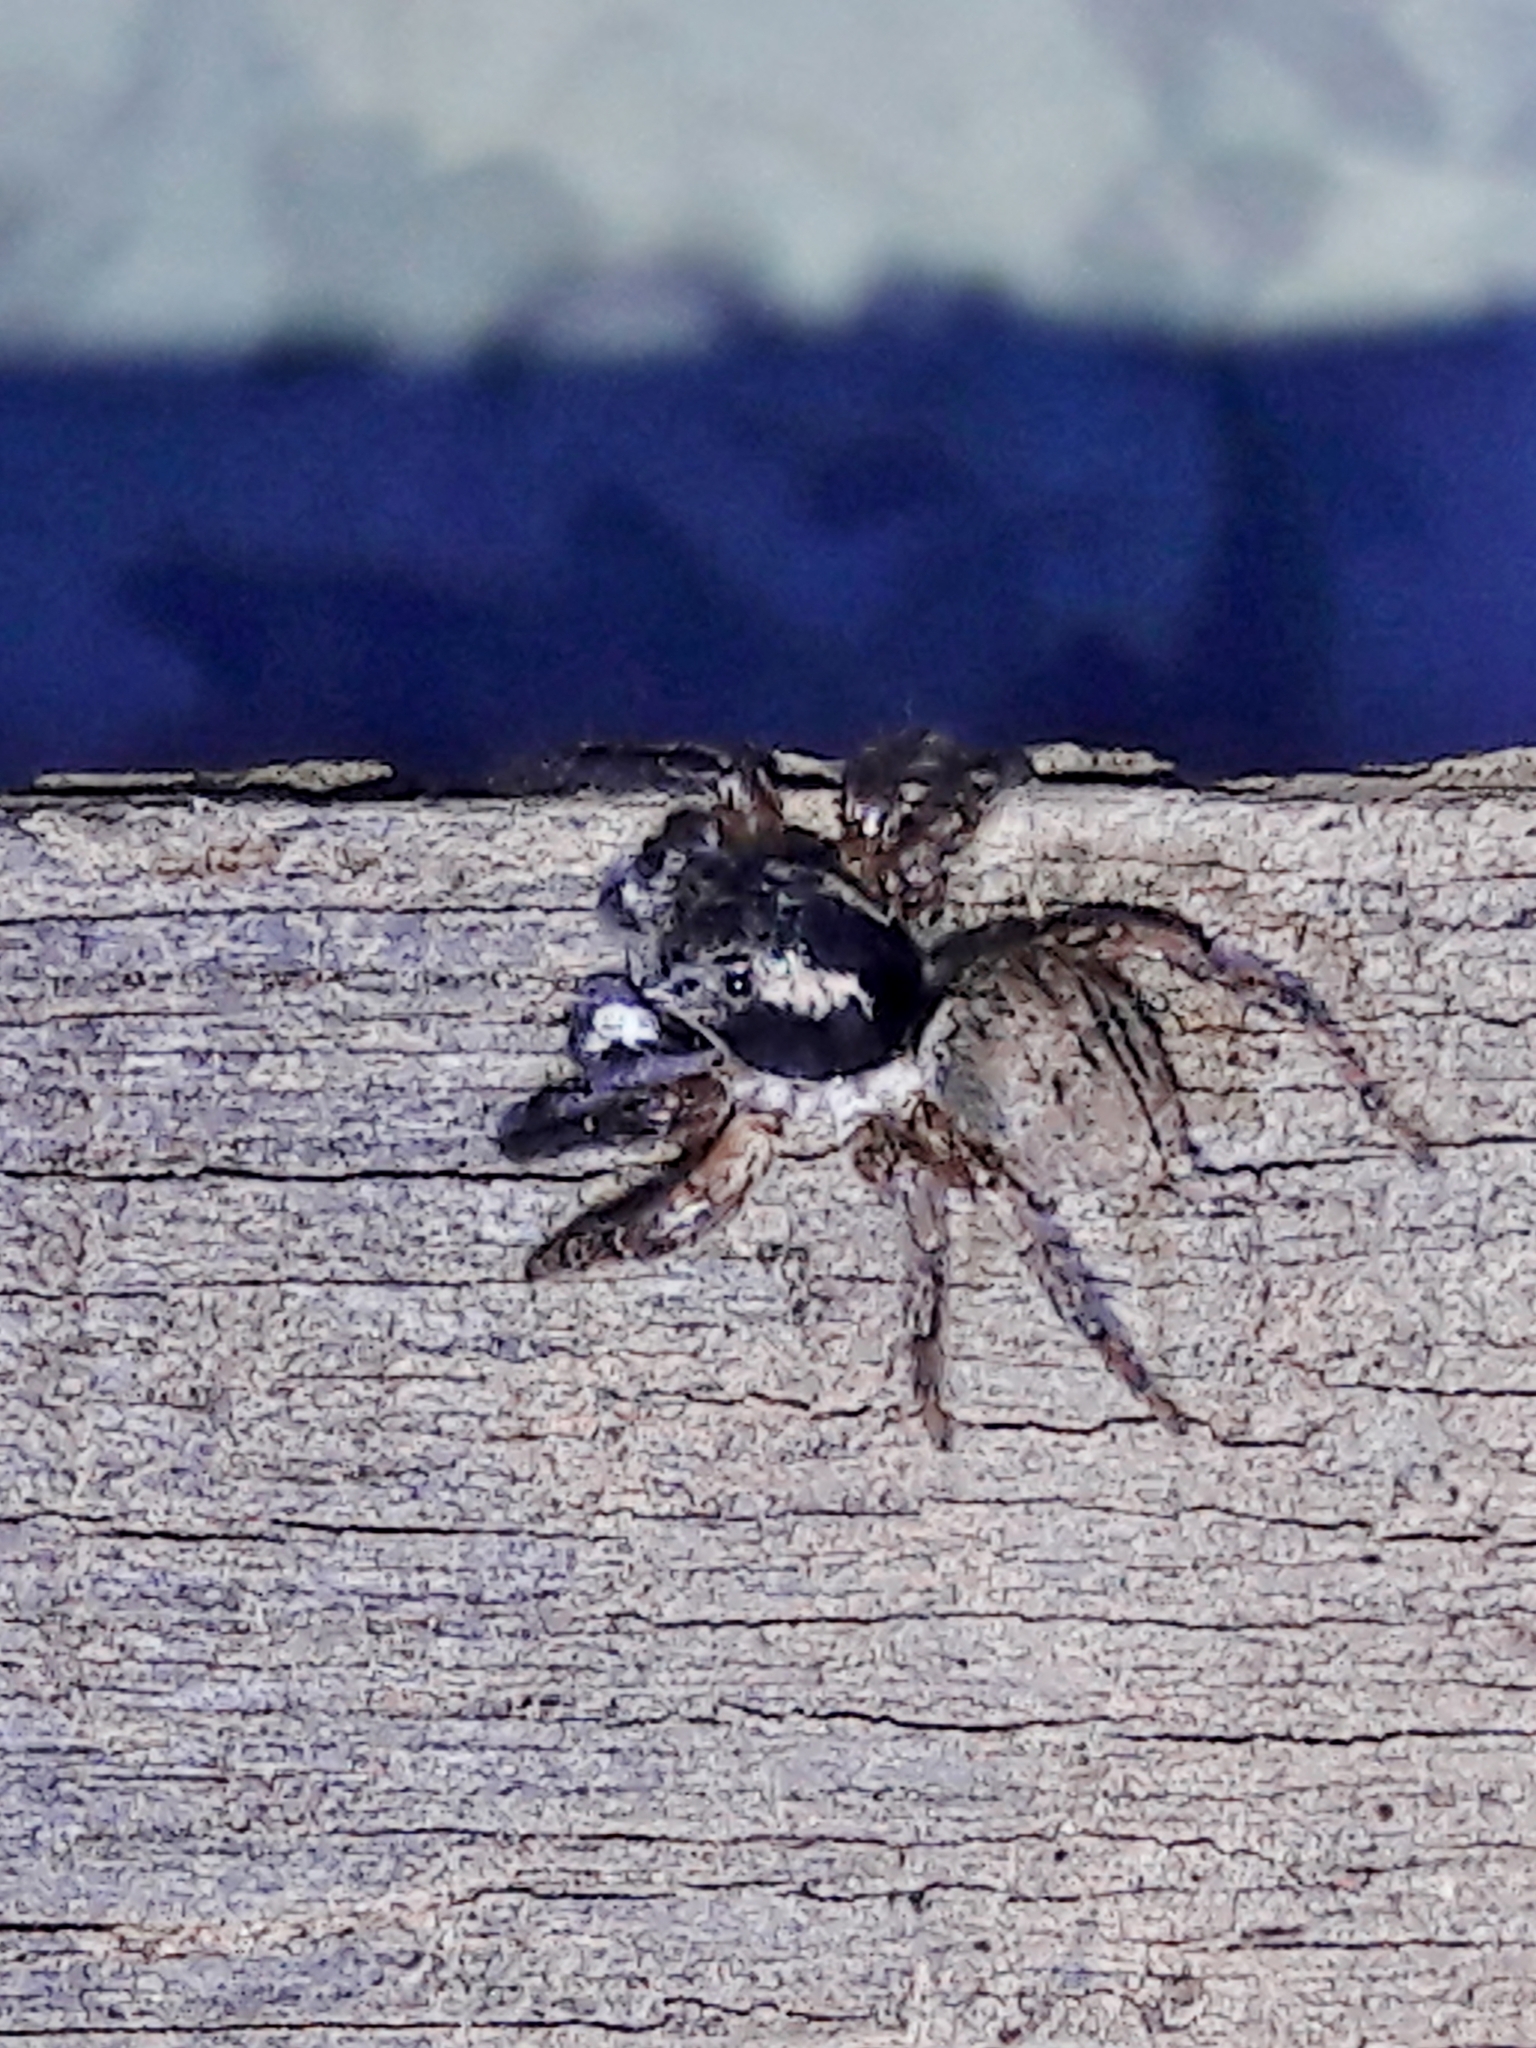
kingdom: Animalia
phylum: Arthropoda
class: Arachnida
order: Araneae
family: Salticidae
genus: Sumampattus
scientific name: Sumampattus quinqueradiatus
